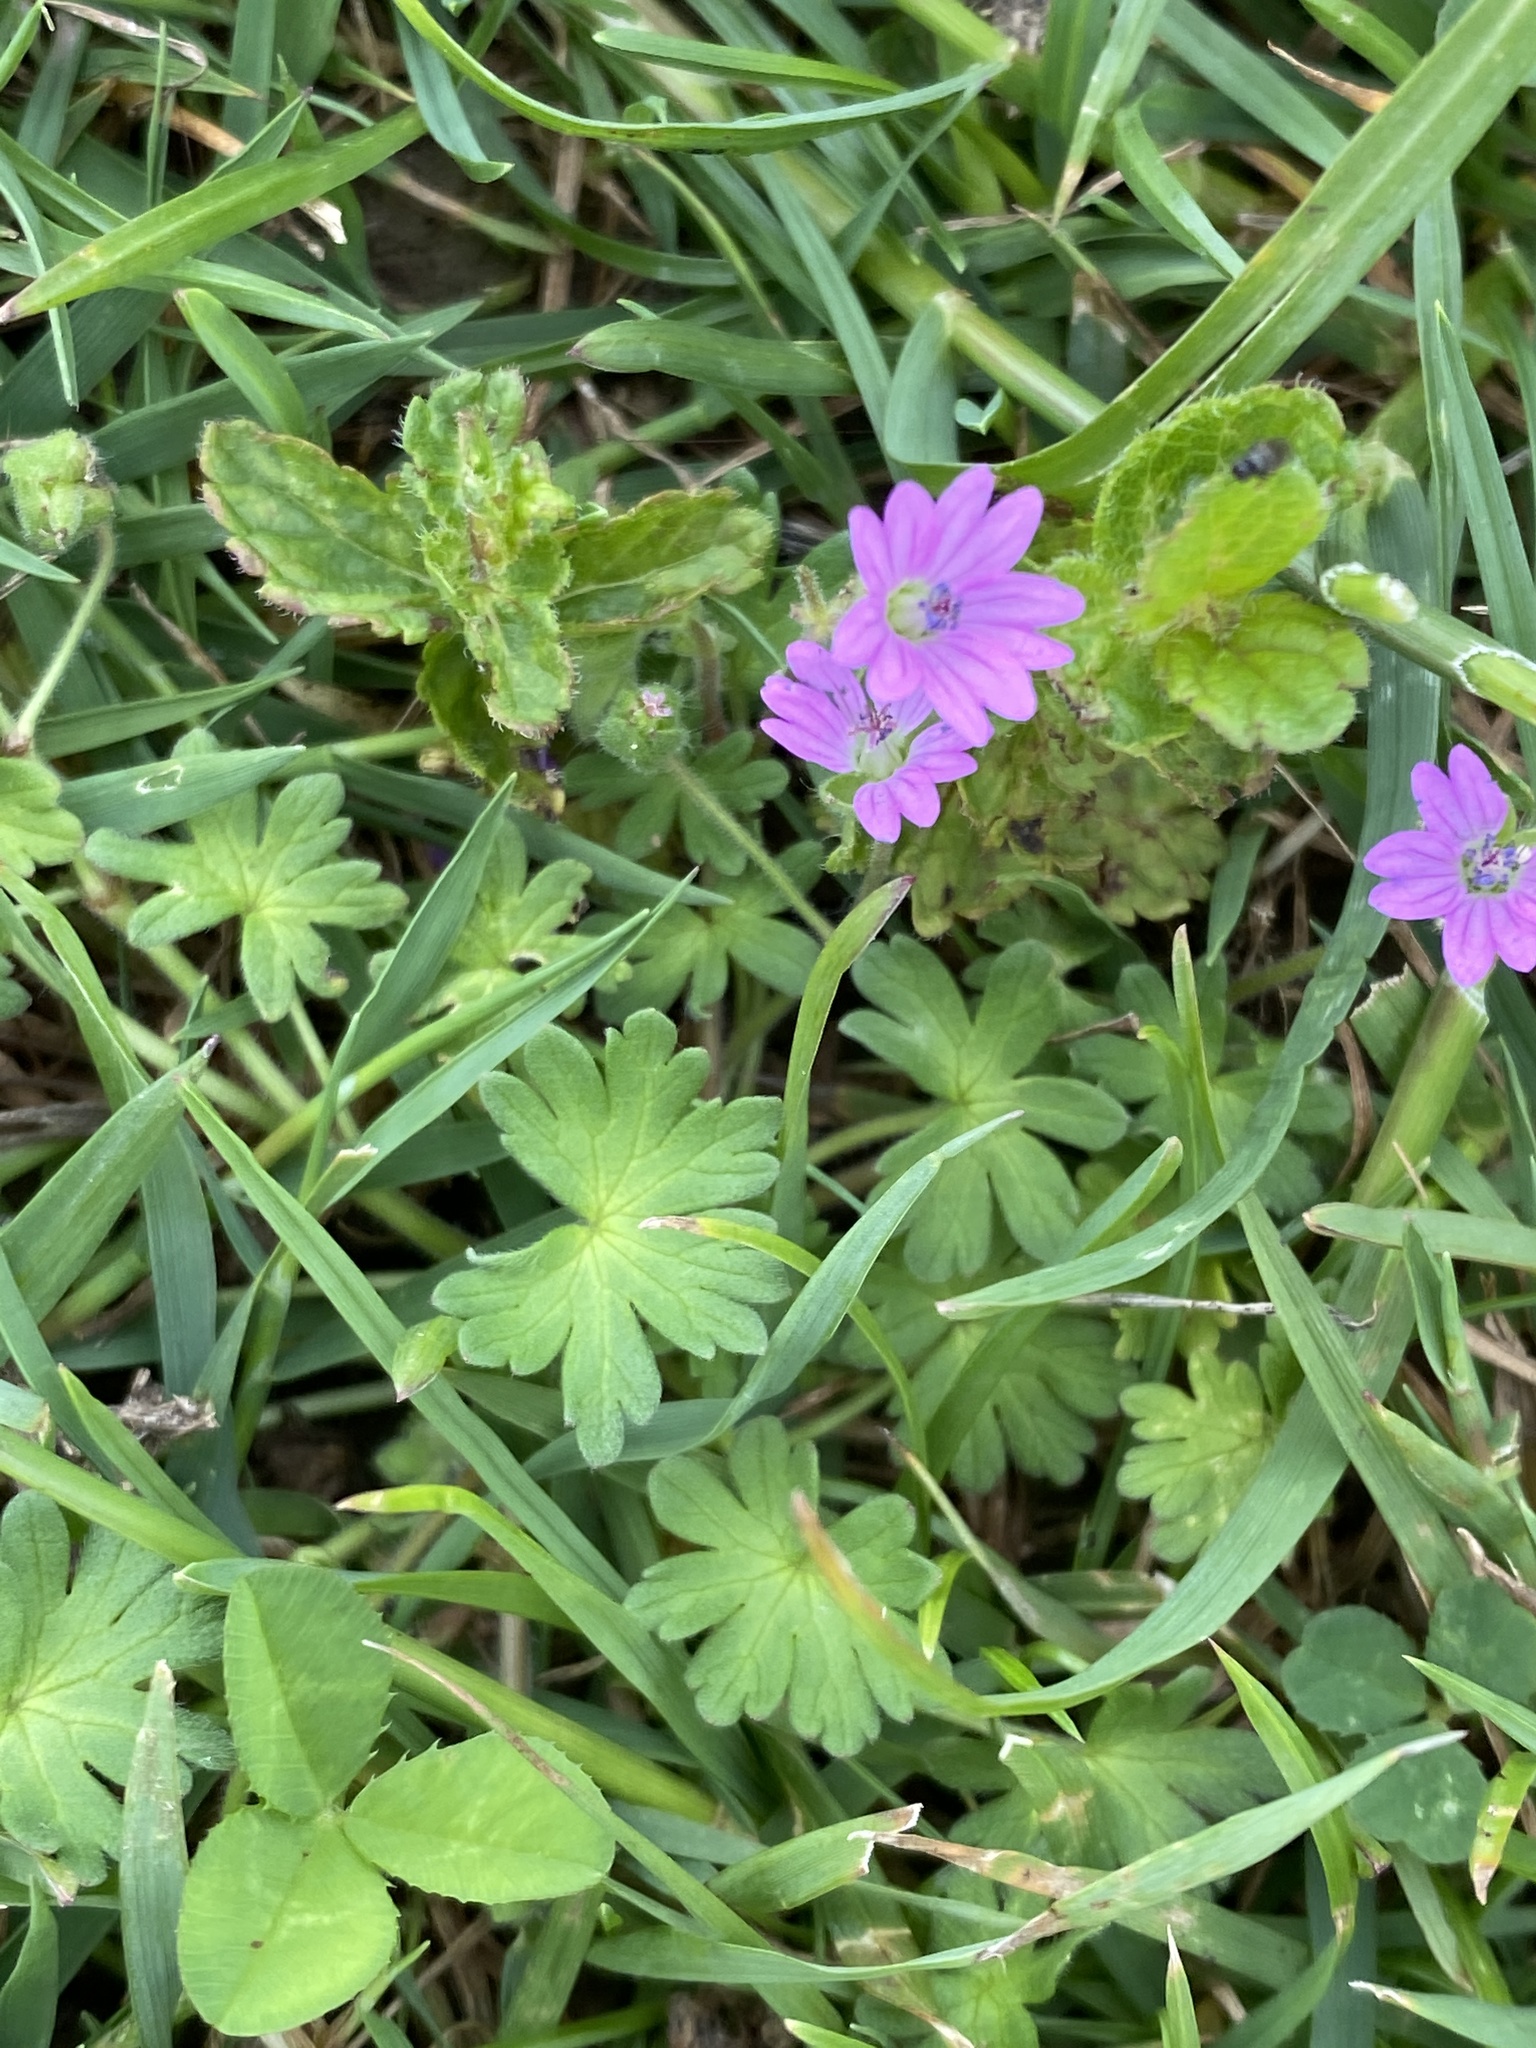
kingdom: Plantae
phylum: Tracheophyta
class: Magnoliopsida
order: Geraniales
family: Geraniaceae
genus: Geranium
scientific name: Geranium molle
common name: Dove's-foot crane's-bill
